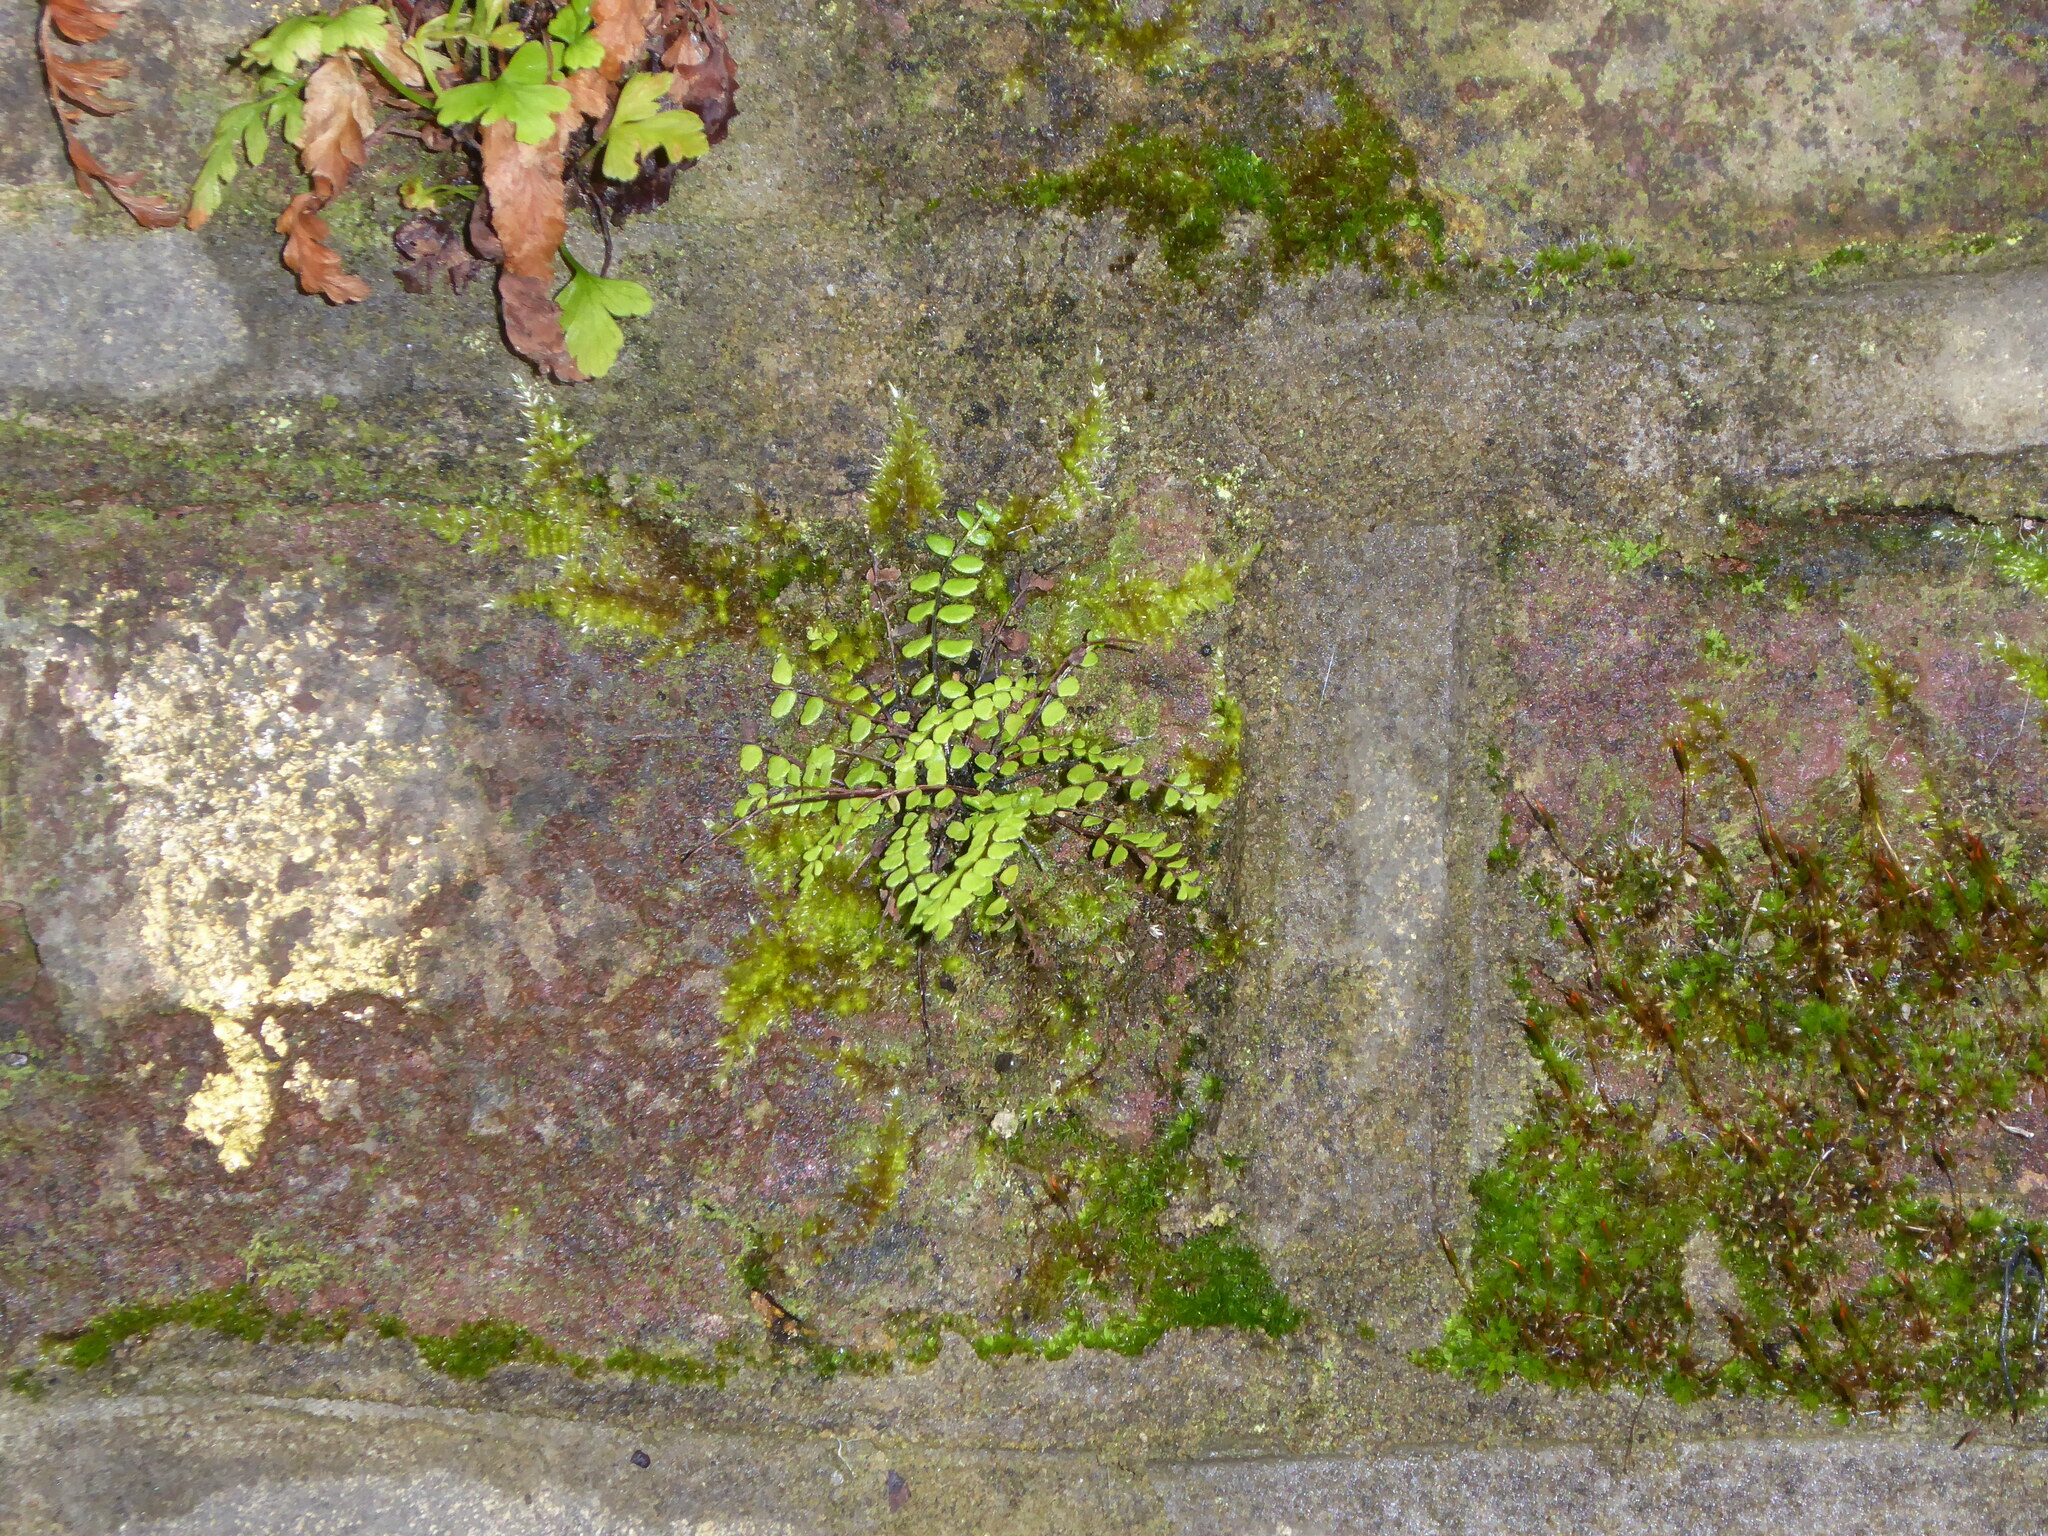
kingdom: Plantae
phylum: Tracheophyta
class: Polypodiopsida
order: Polypodiales
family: Aspleniaceae
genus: Asplenium
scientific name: Asplenium trichomanes
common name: Maidenhair spleenwort
